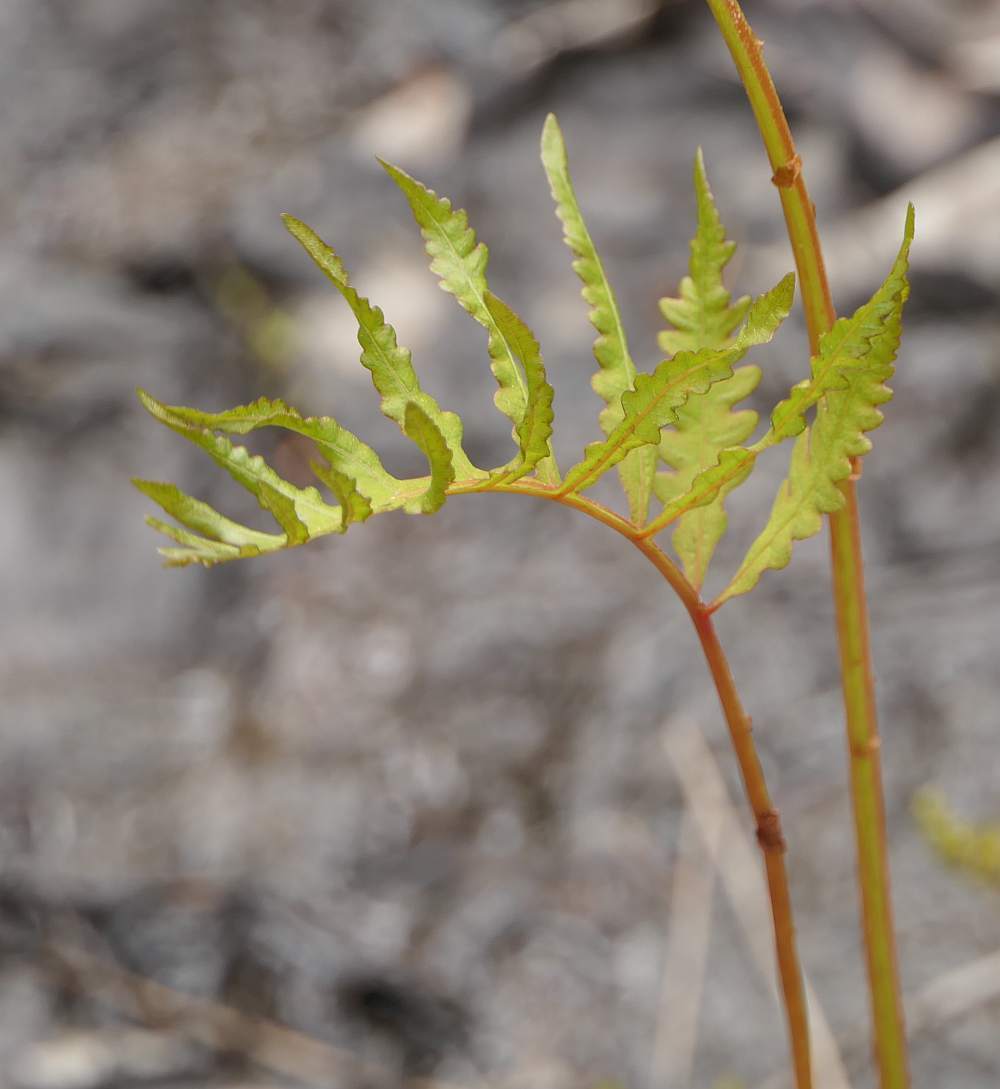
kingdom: Plantae
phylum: Tracheophyta
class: Polypodiopsida
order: Polypodiales
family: Onocleaceae
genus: Onoclea
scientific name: Onoclea sensibilis
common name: Sensitive fern
